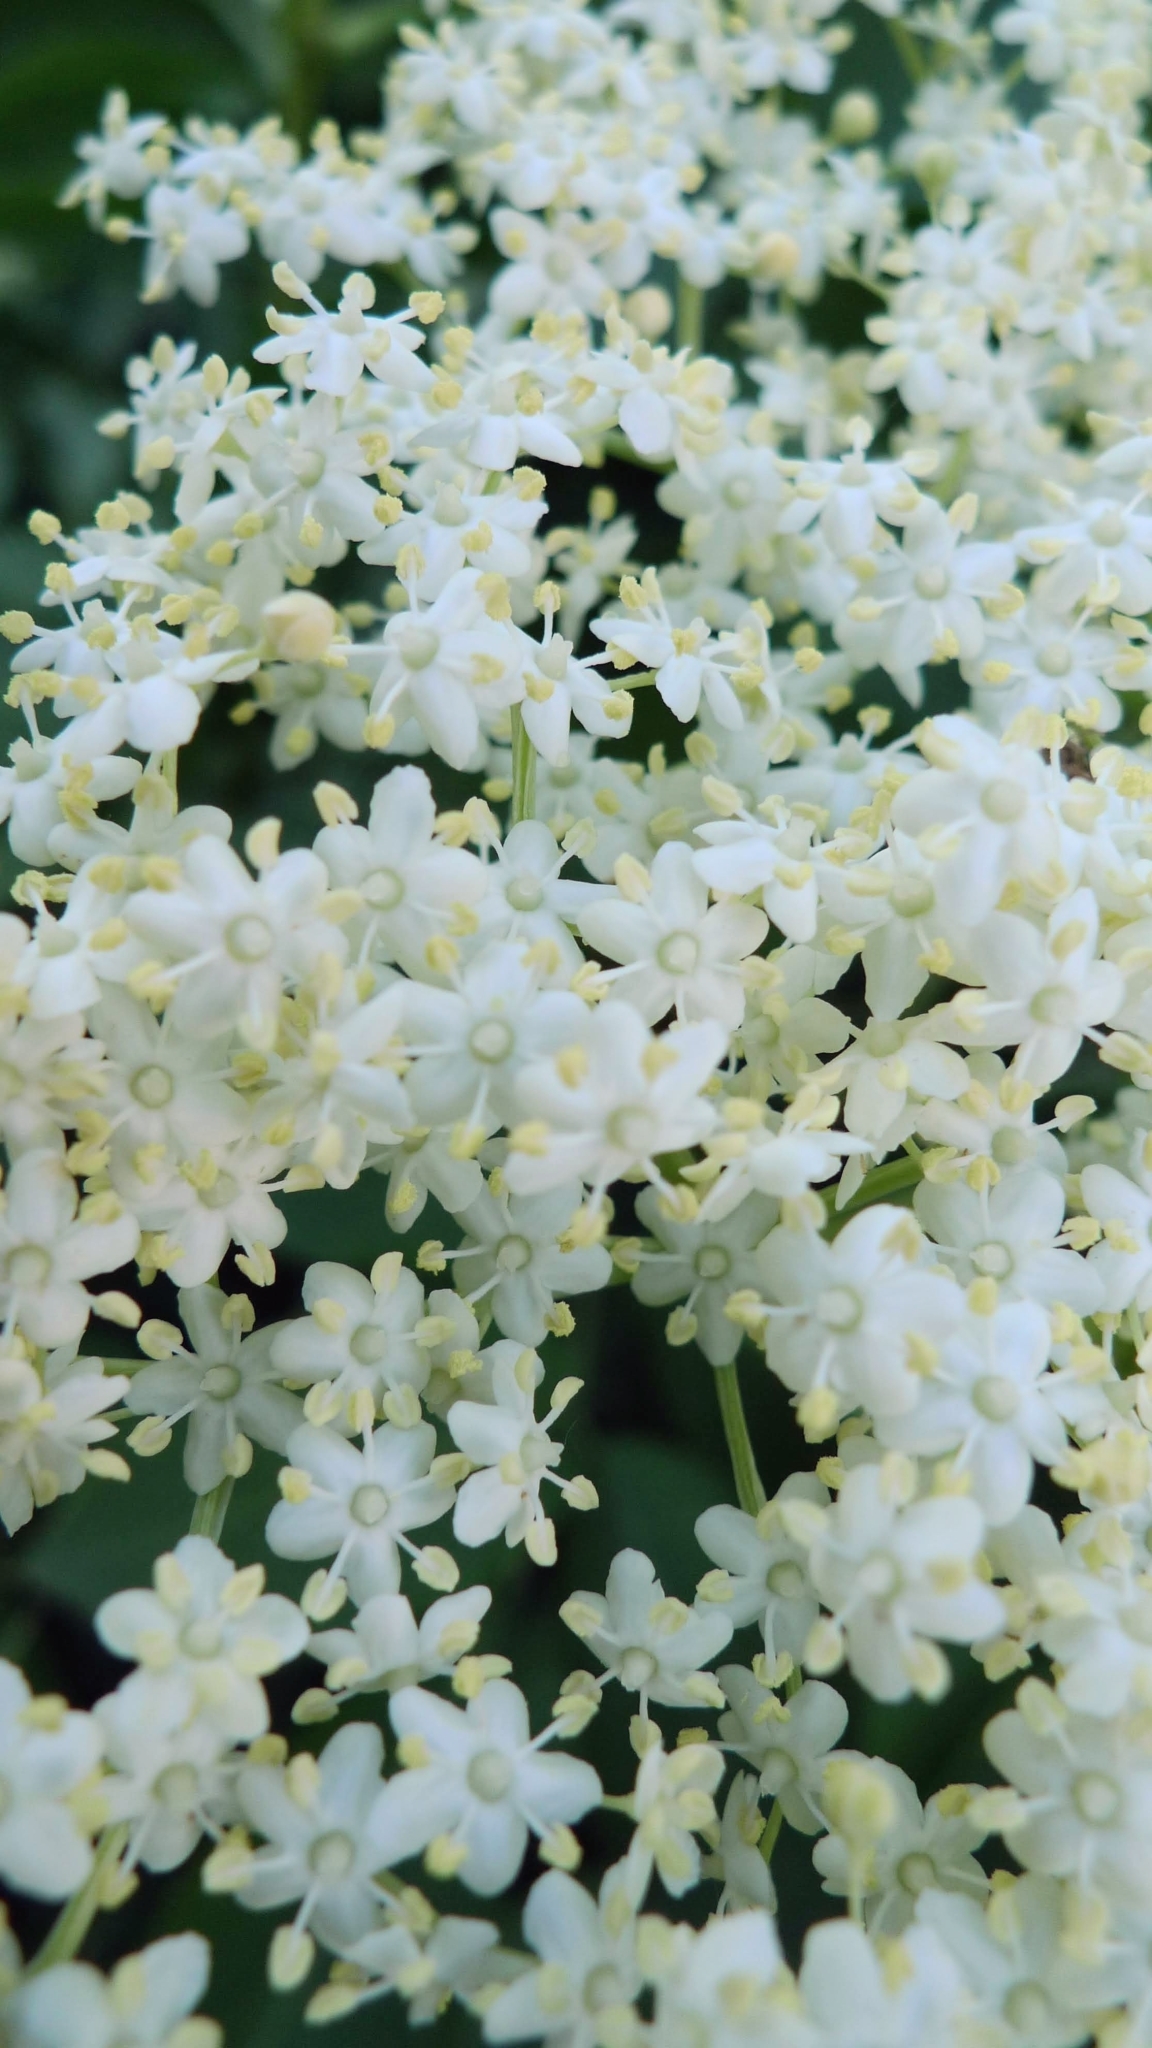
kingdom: Plantae
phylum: Tracheophyta
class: Magnoliopsida
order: Dipsacales
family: Viburnaceae
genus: Sambucus
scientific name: Sambucus nigra
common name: Elder
